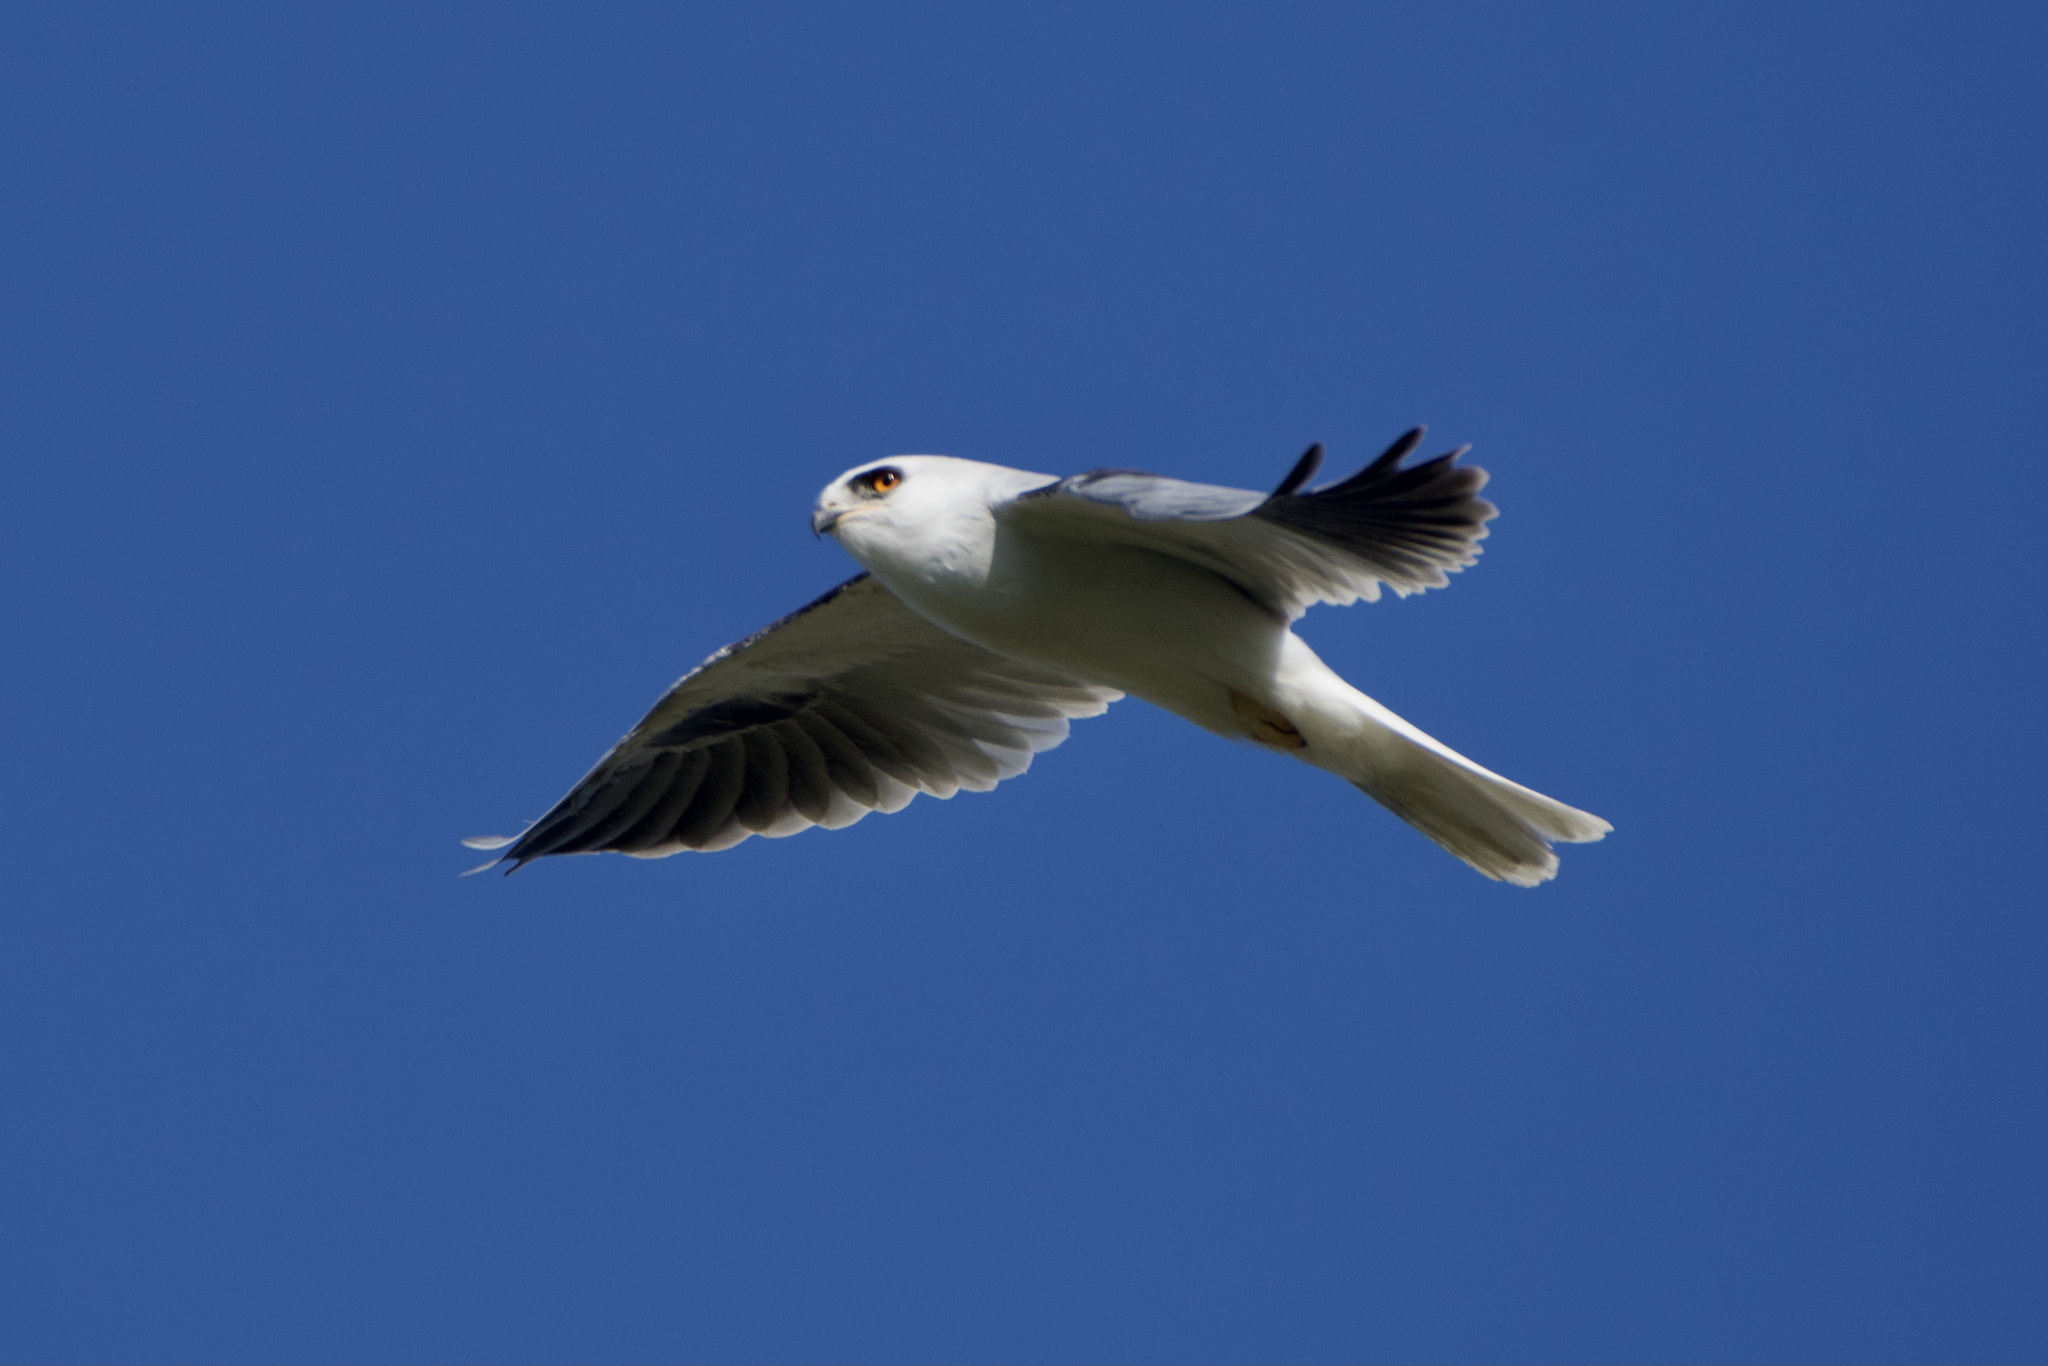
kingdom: Animalia
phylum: Chordata
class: Aves
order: Accipitriformes
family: Accipitridae
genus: Elanus
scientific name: Elanus leucurus
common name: White-tailed kite
